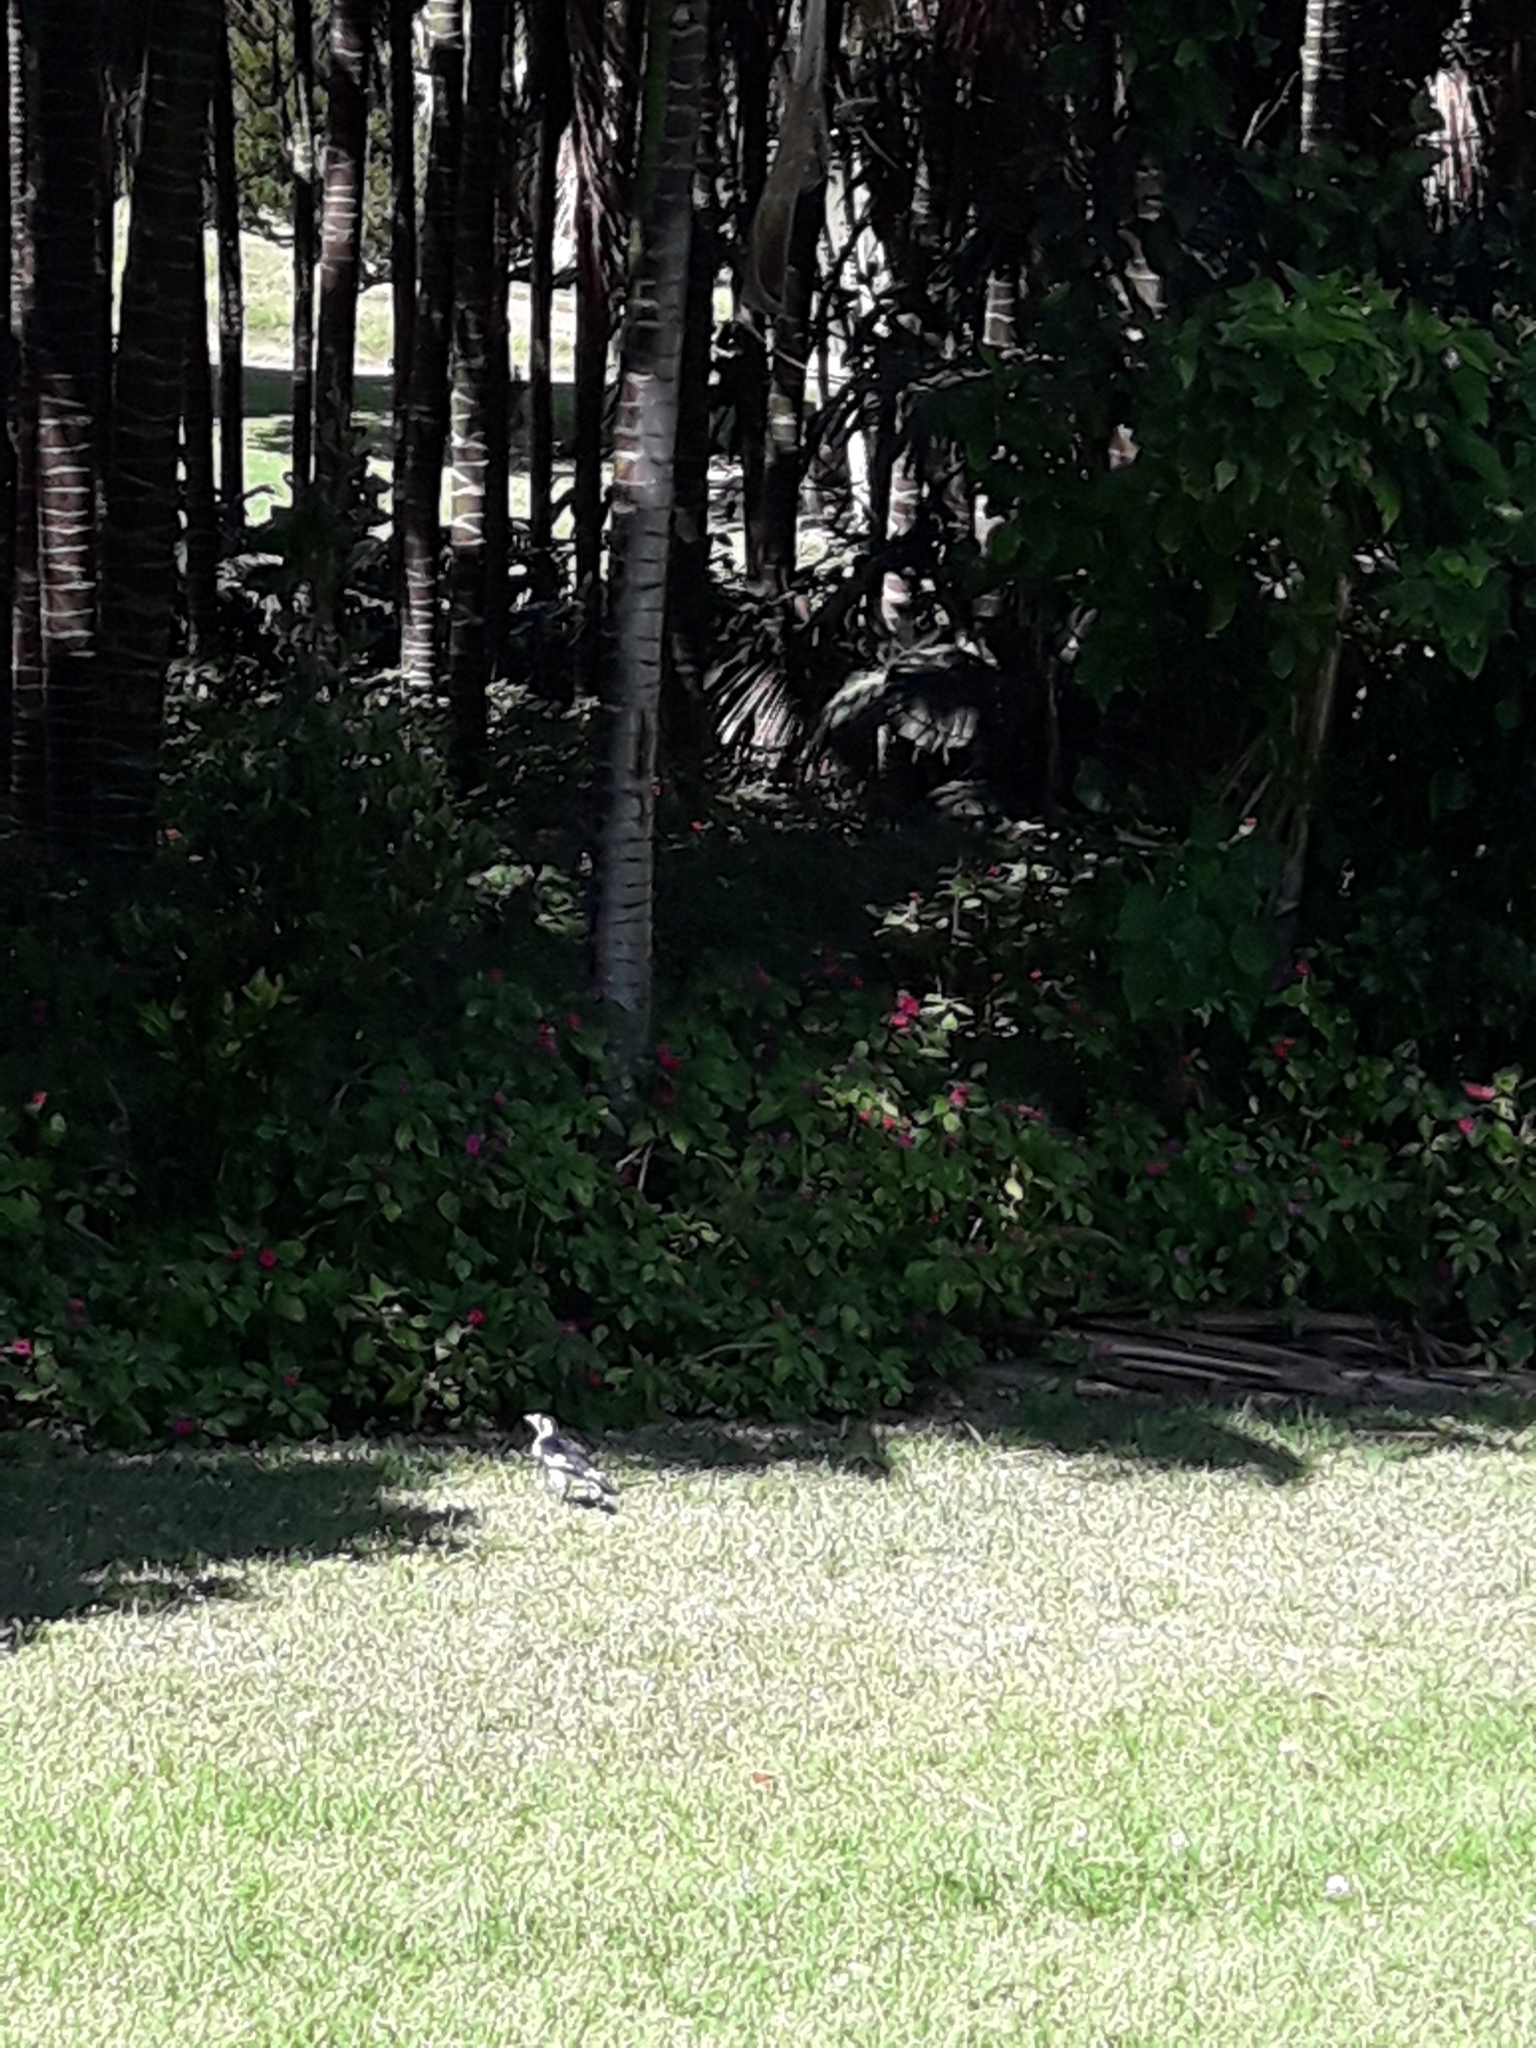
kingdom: Animalia
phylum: Chordata
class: Aves
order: Passeriformes
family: Monarchidae
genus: Grallina
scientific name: Grallina cyanoleuca
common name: Magpie-lark
